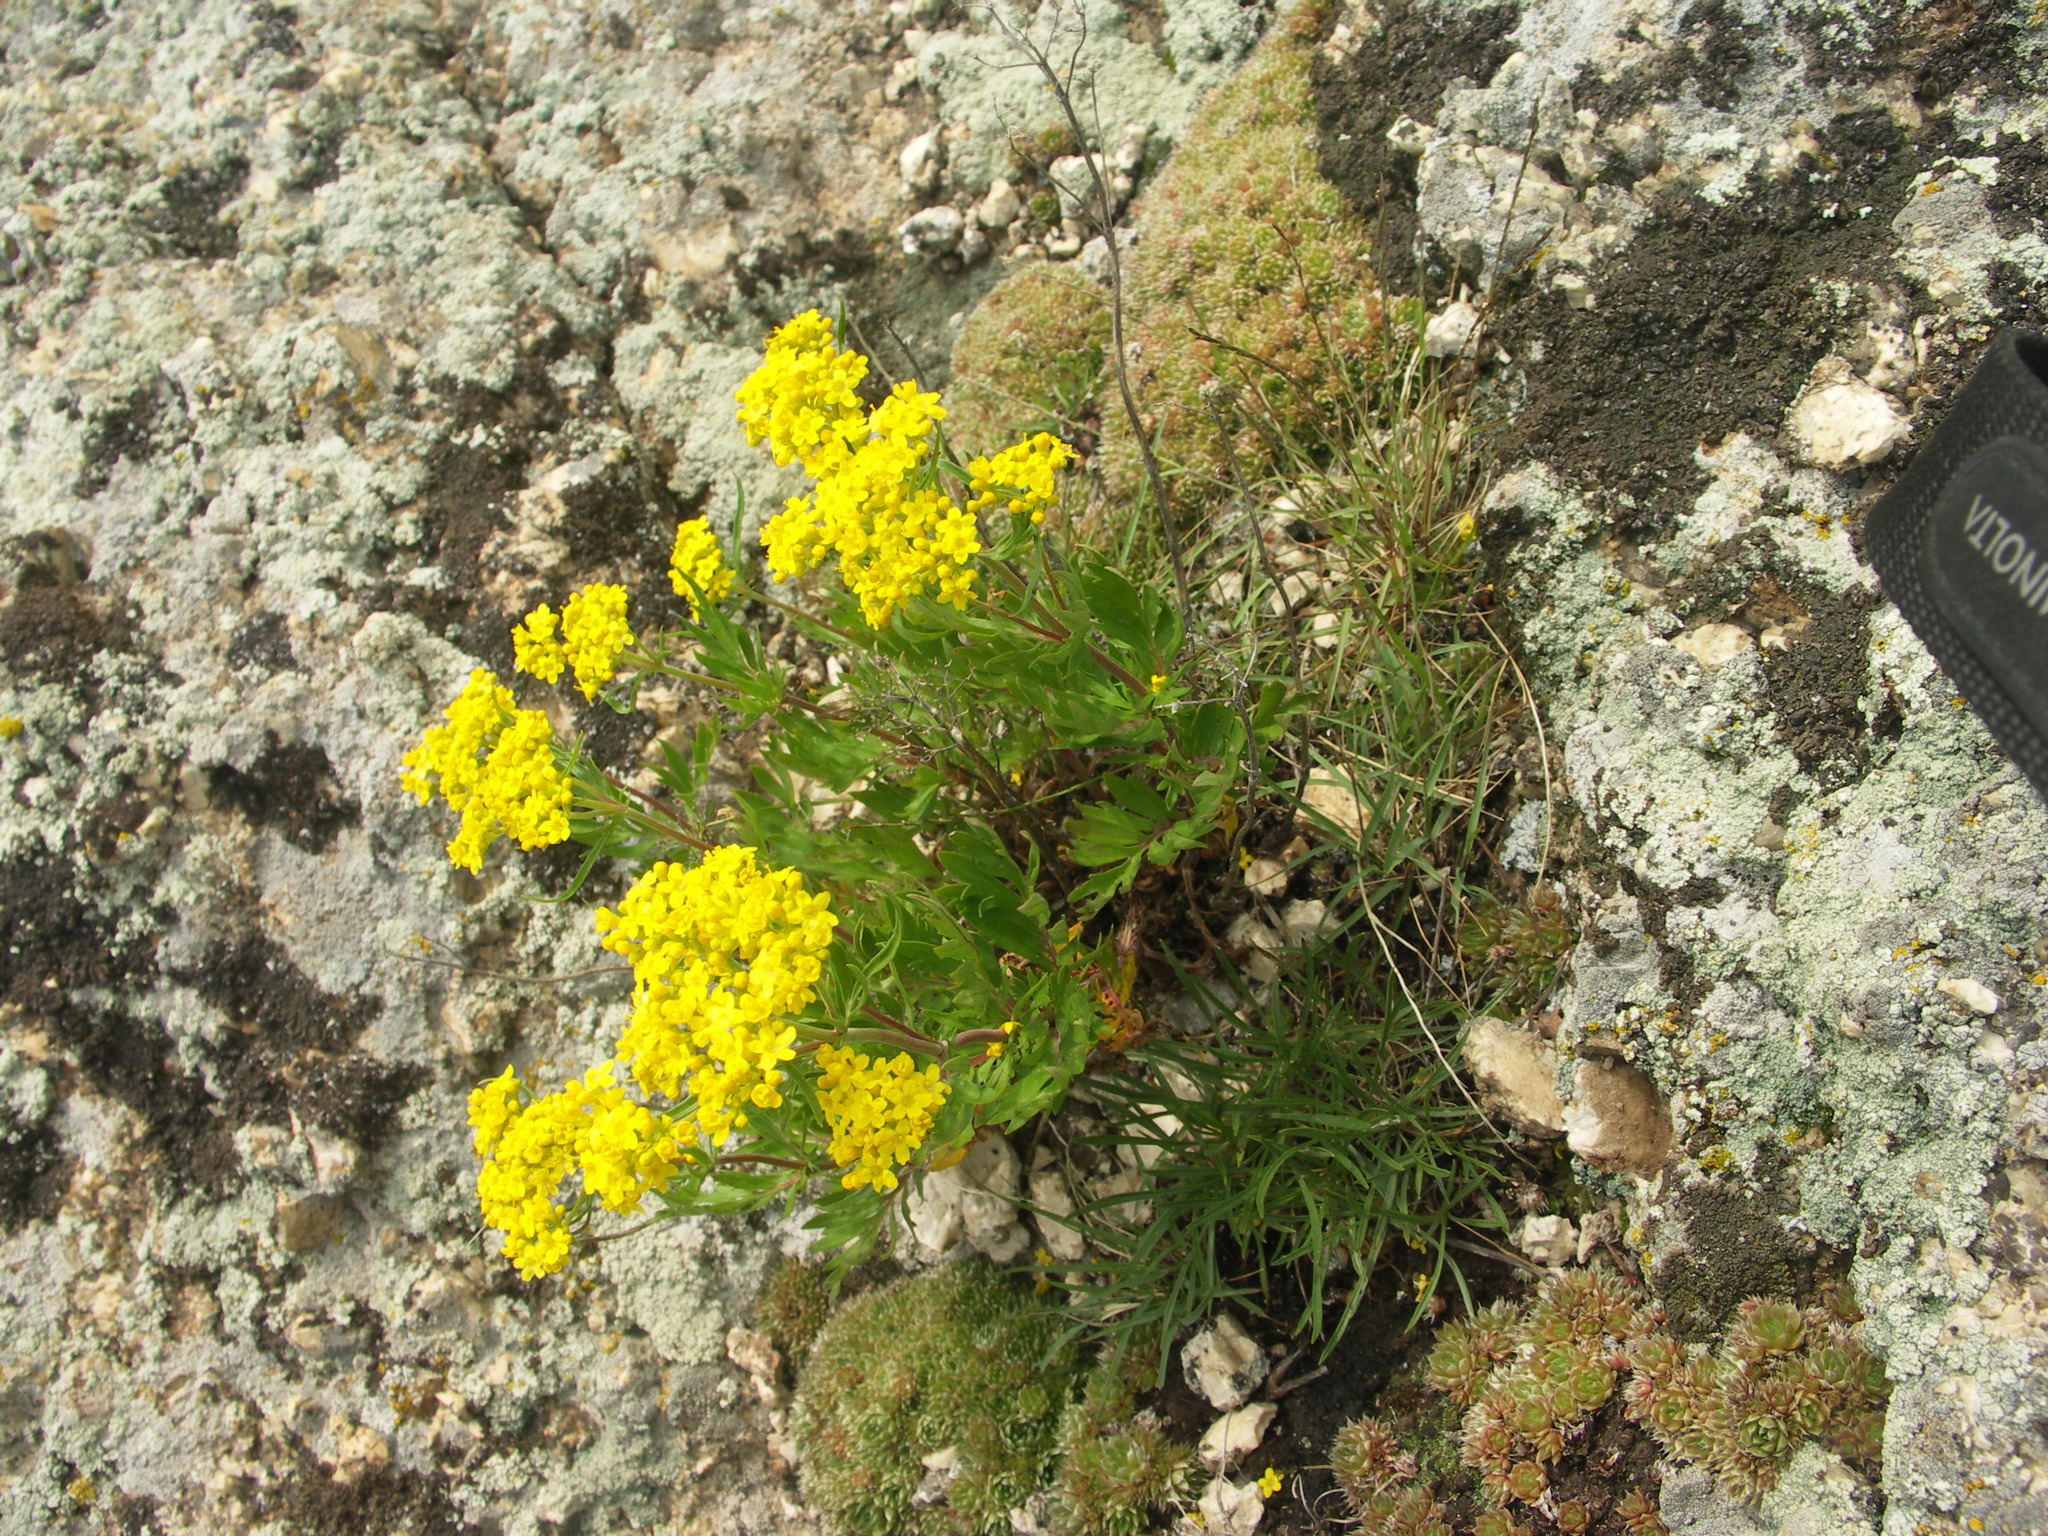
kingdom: Plantae
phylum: Tracheophyta
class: Magnoliopsida
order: Dipsacales
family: Caprifoliaceae
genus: Patrinia
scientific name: Patrinia rupestris
